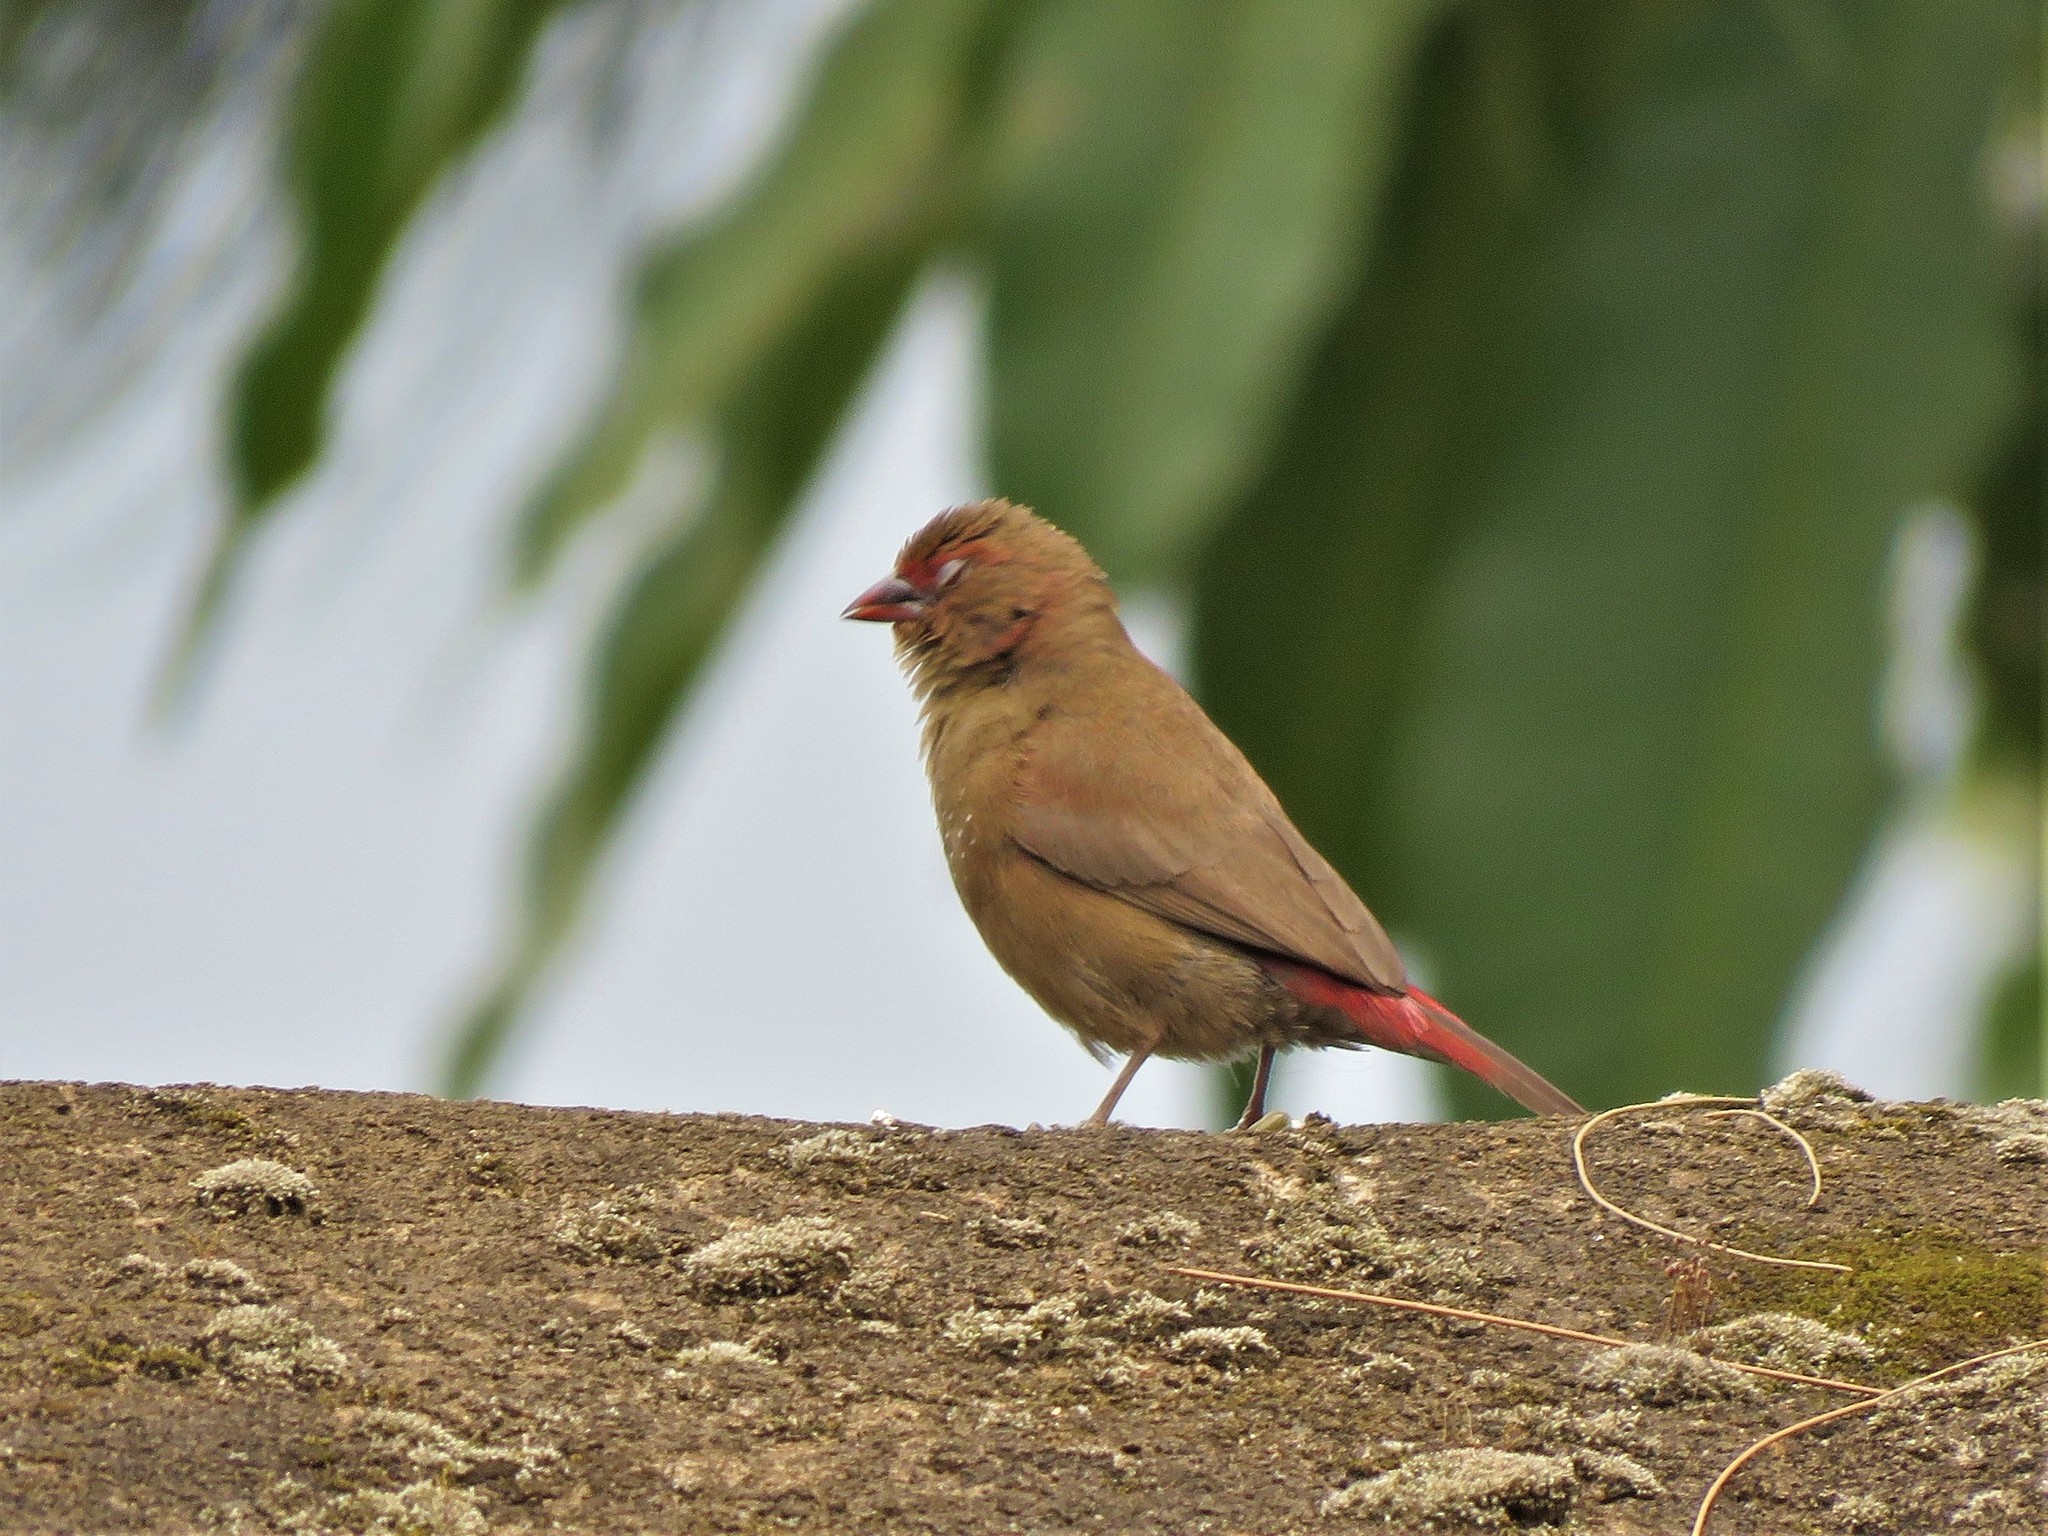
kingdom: Animalia
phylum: Chordata
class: Aves
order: Passeriformes
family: Estrildidae
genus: Lagonosticta
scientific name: Lagonosticta senegala
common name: Red-billed firefinch
